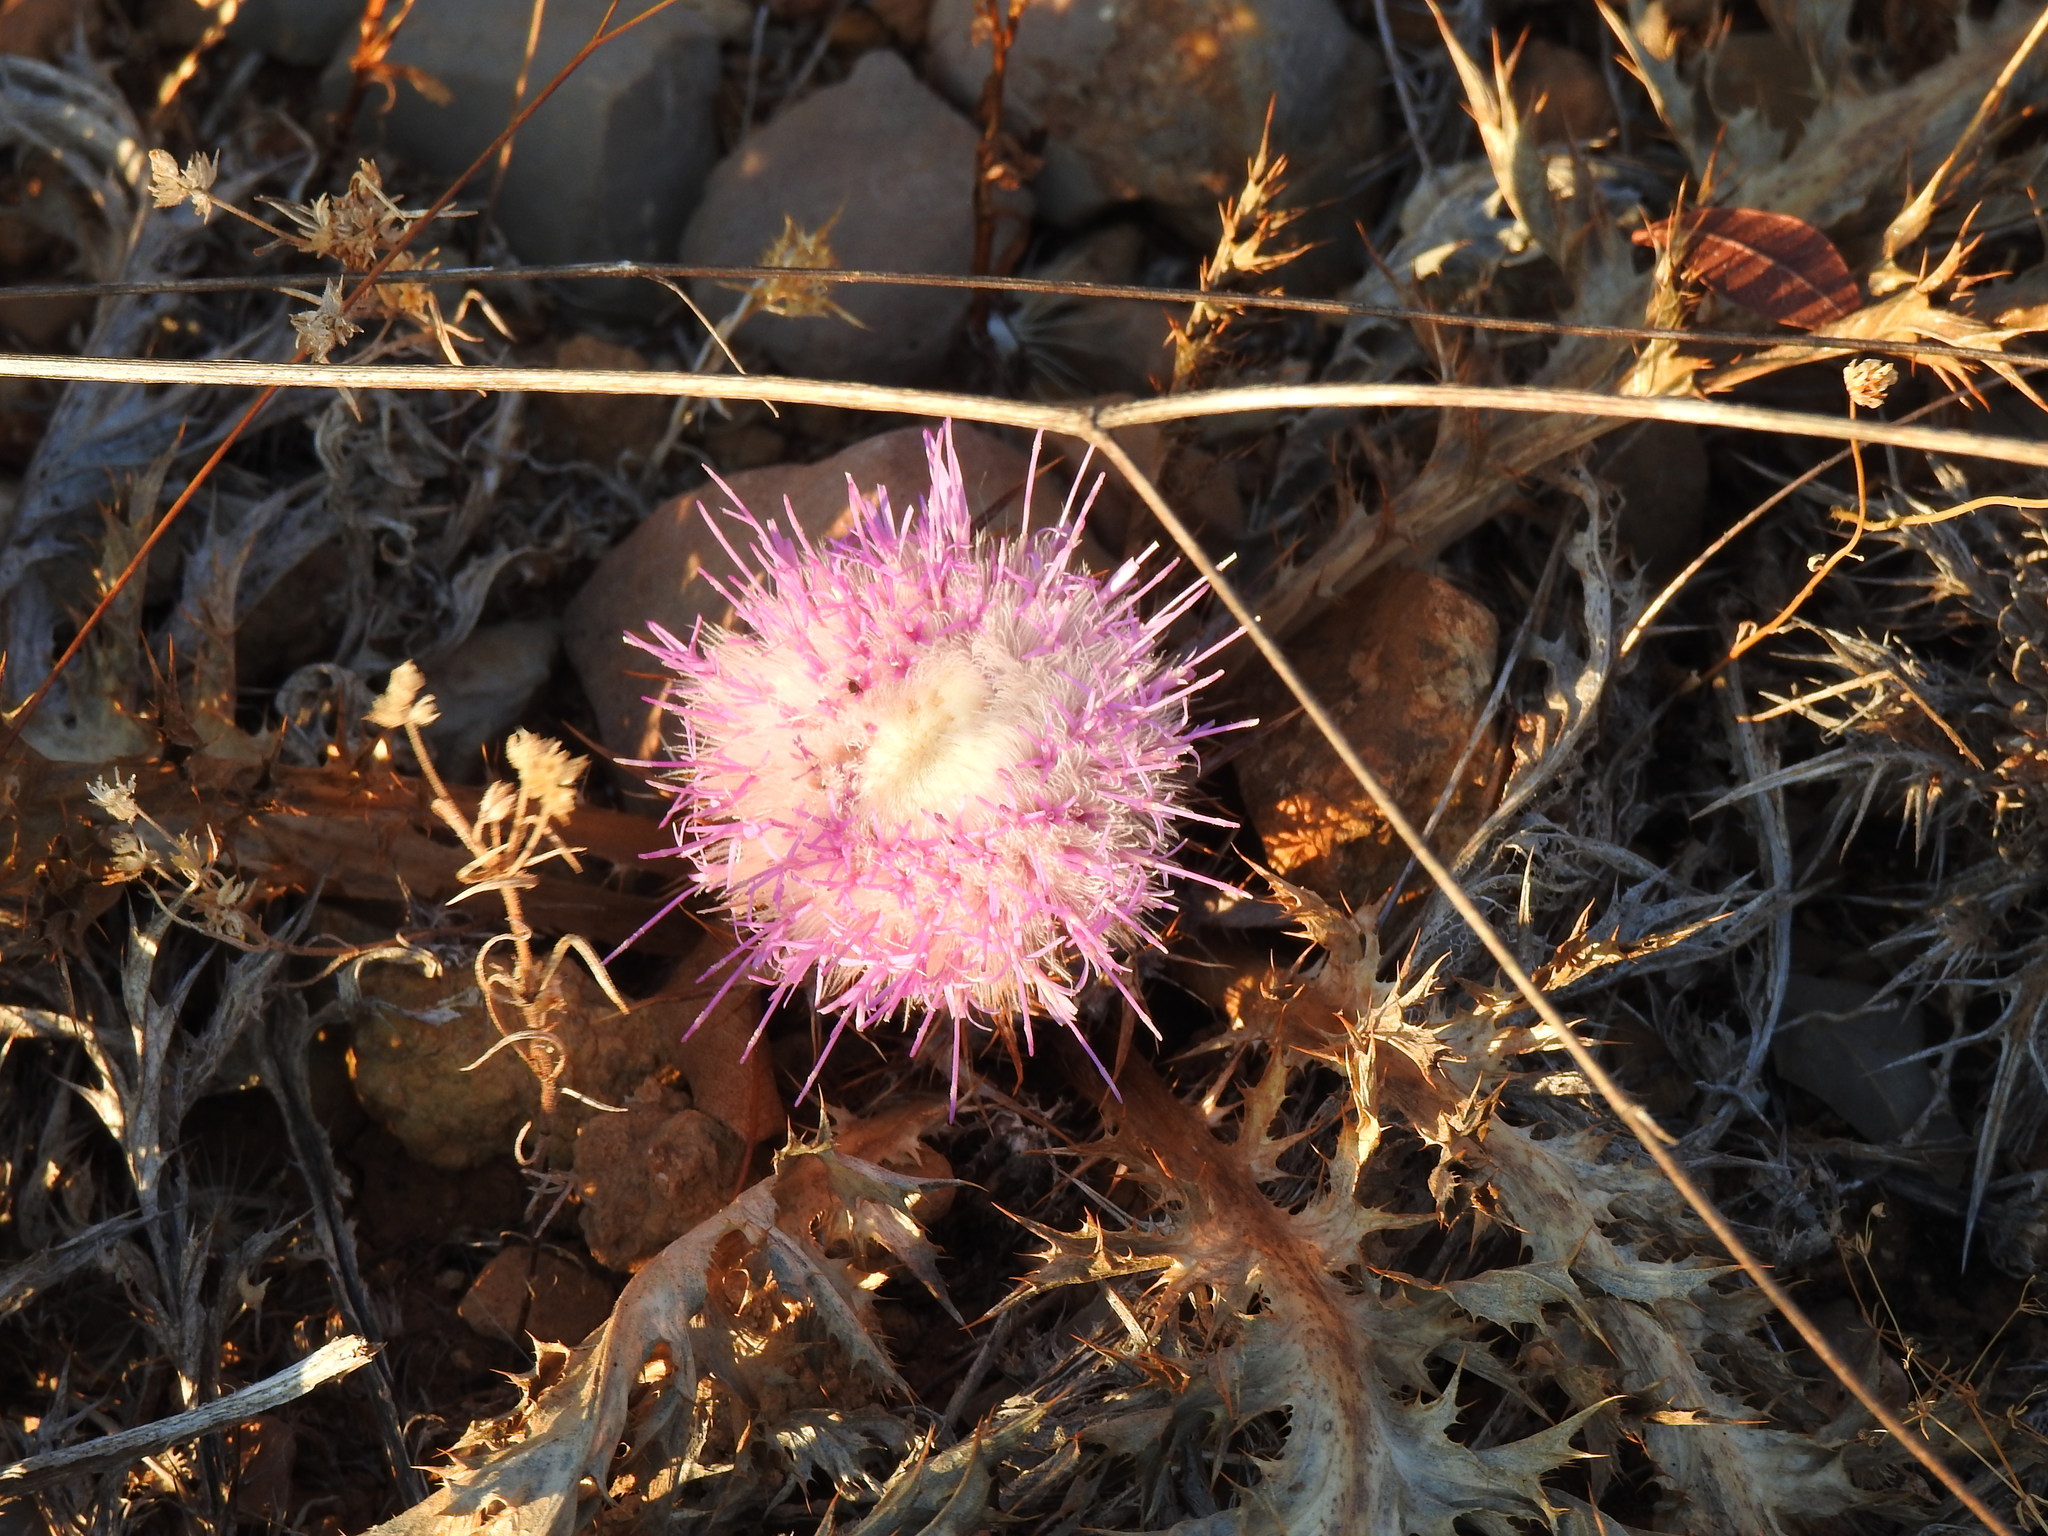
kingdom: Plantae
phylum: Tracheophyta
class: Magnoliopsida
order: Asterales
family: Asteraceae
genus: Chamaeleon
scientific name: Chamaeleon gummifer
